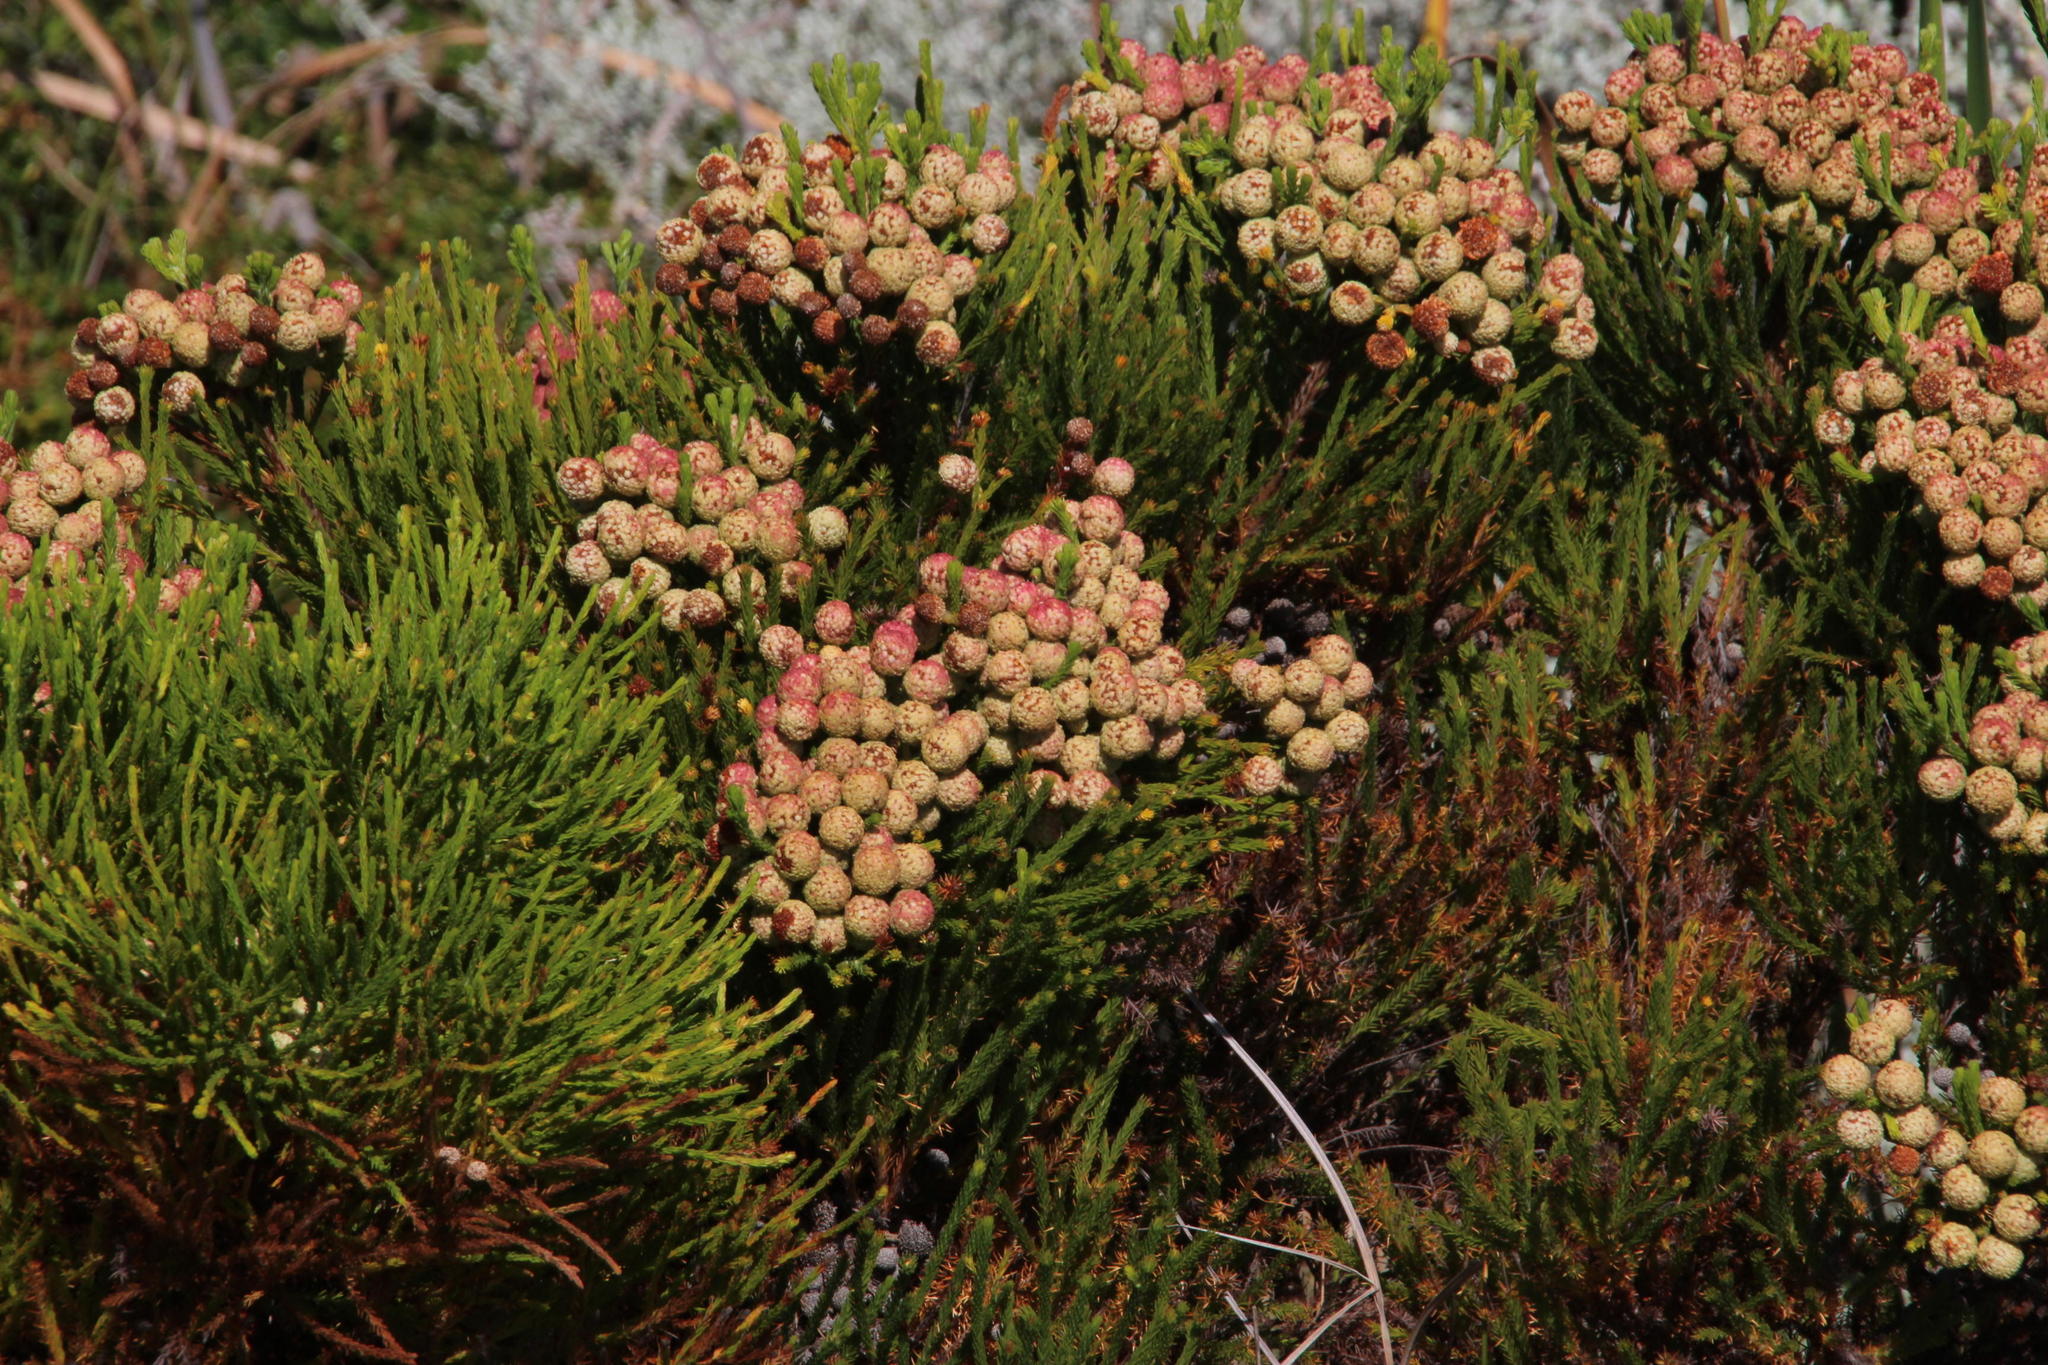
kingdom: Plantae
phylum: Tracheophyta
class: Magnoliopsida
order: Bruniales
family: Bruniaceae
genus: Berzelia
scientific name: Berzelia lanuginosa
